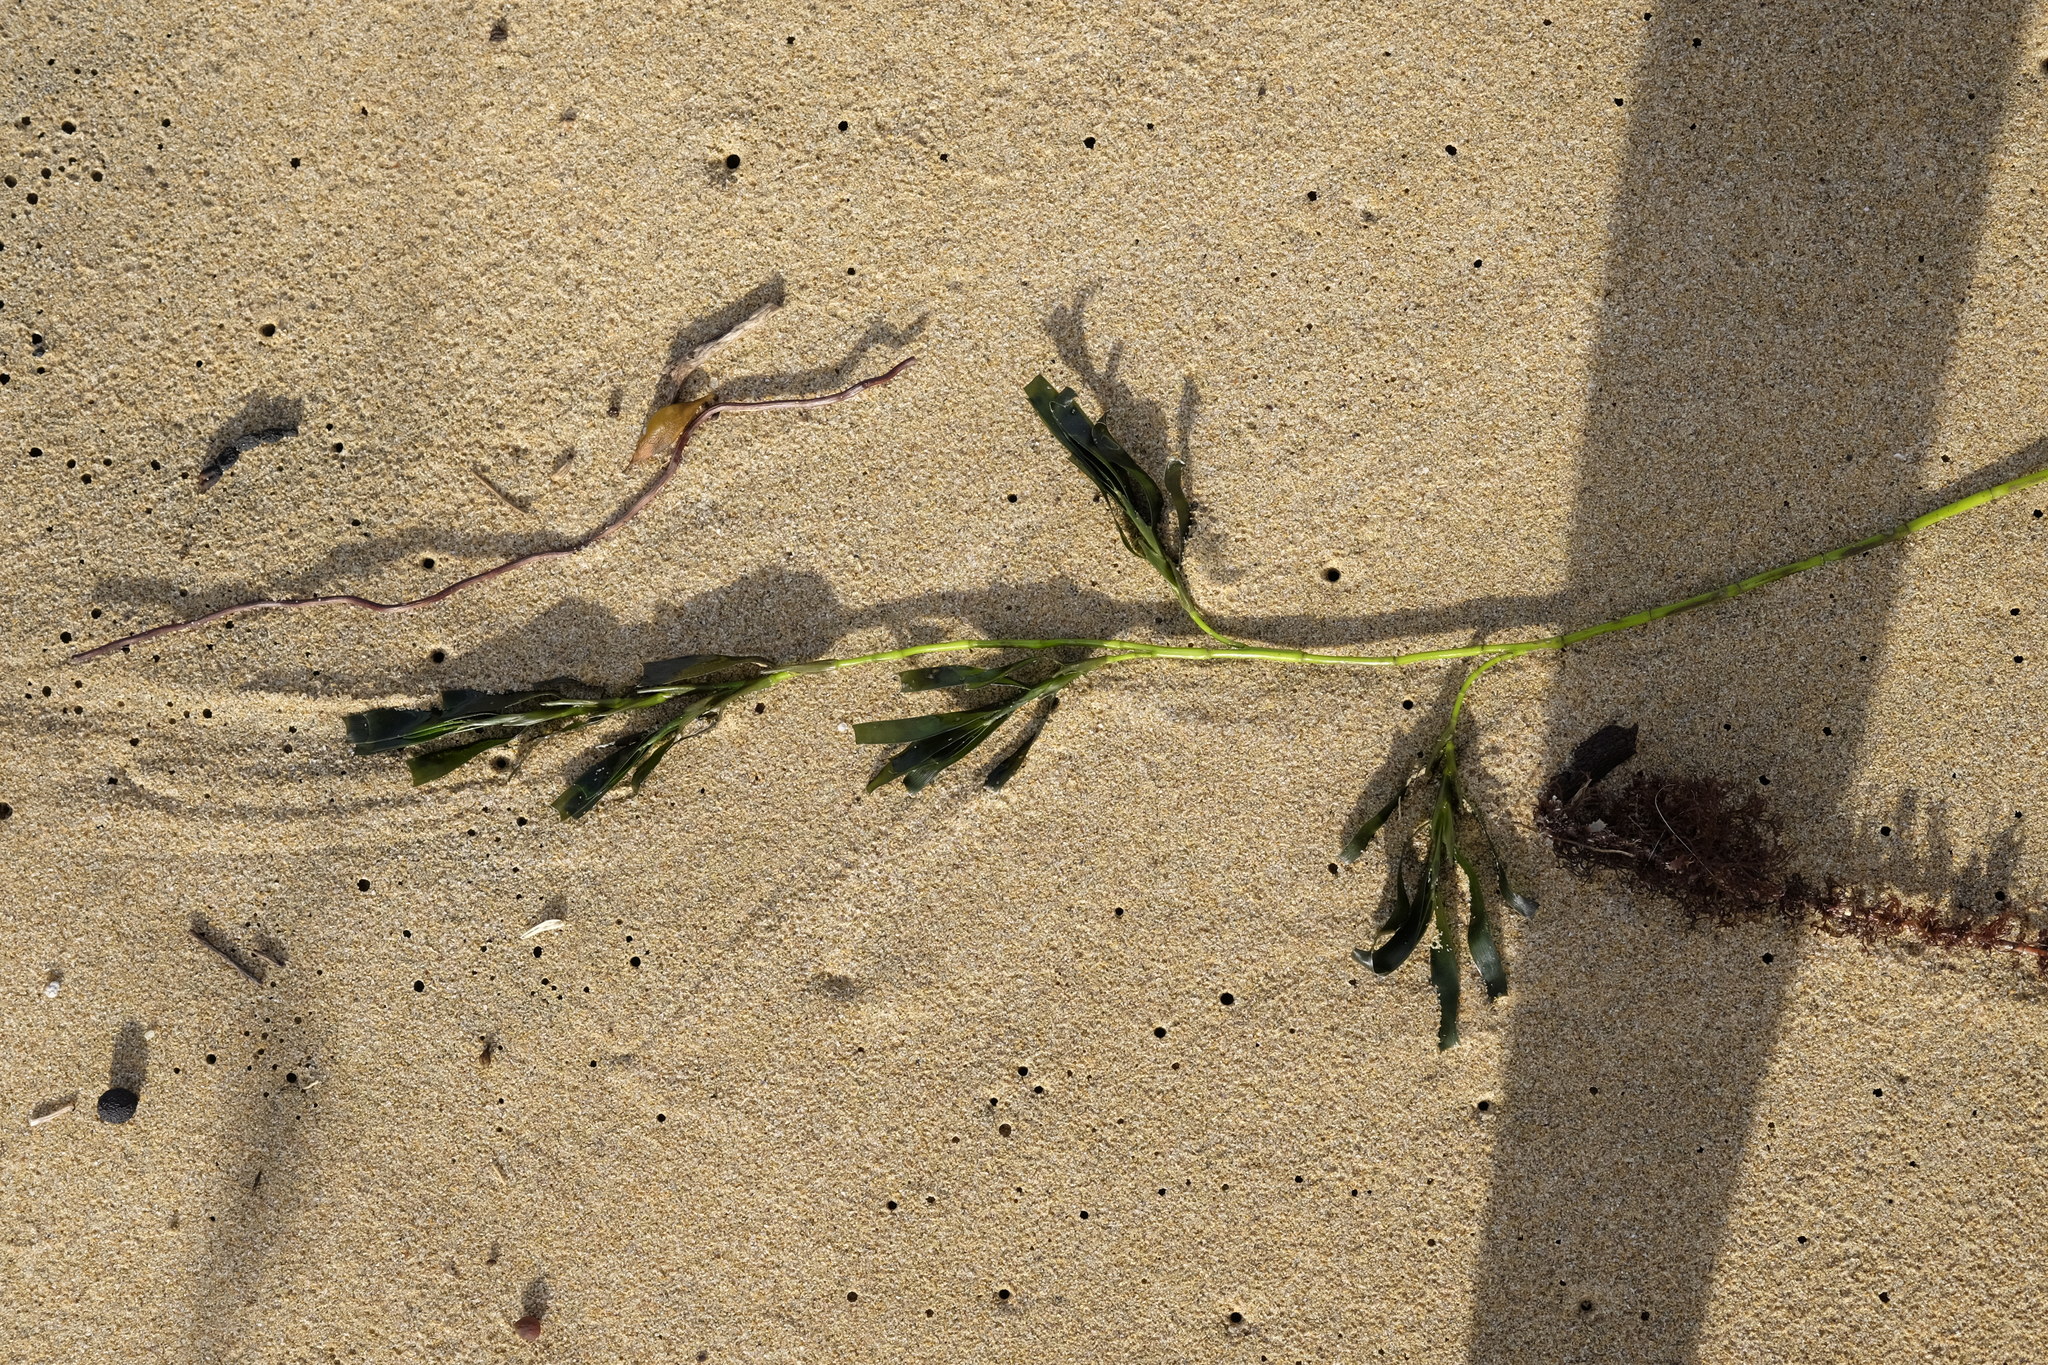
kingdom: Plantae
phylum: Tracheophyta
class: Liliopsida
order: Alismatales
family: Cymodoceaceae
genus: Amphibolis
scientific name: Amphibolis antarctica
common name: Species code: aa
